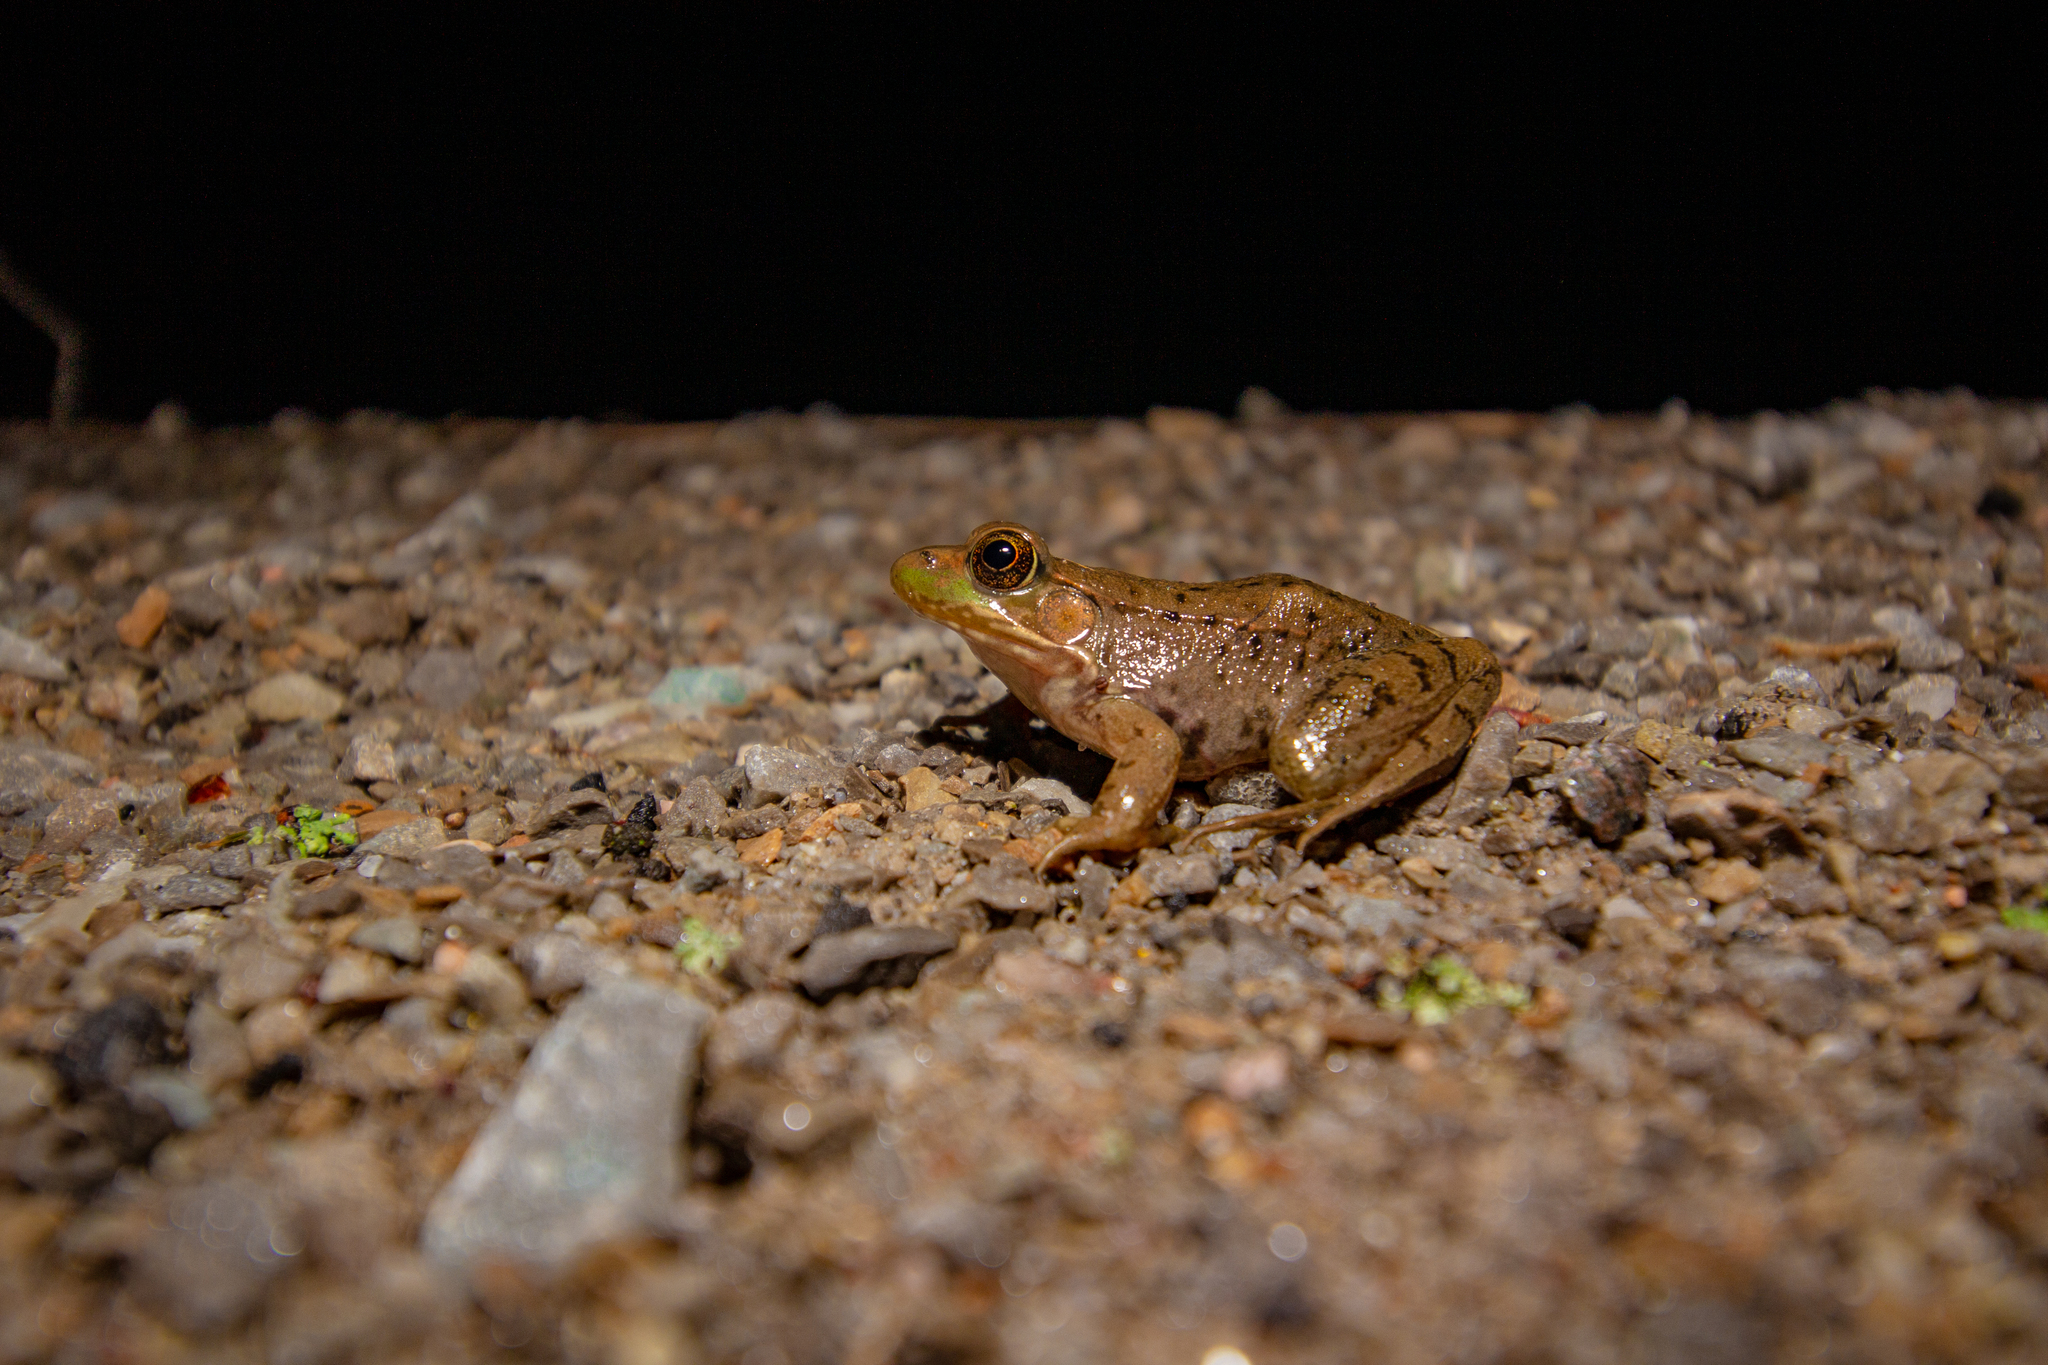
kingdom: Animalia
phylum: Chordata
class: Amphibia
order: Anura
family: Ranidae
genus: Lithobates
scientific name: Lithobates clamitans
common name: Green frog
